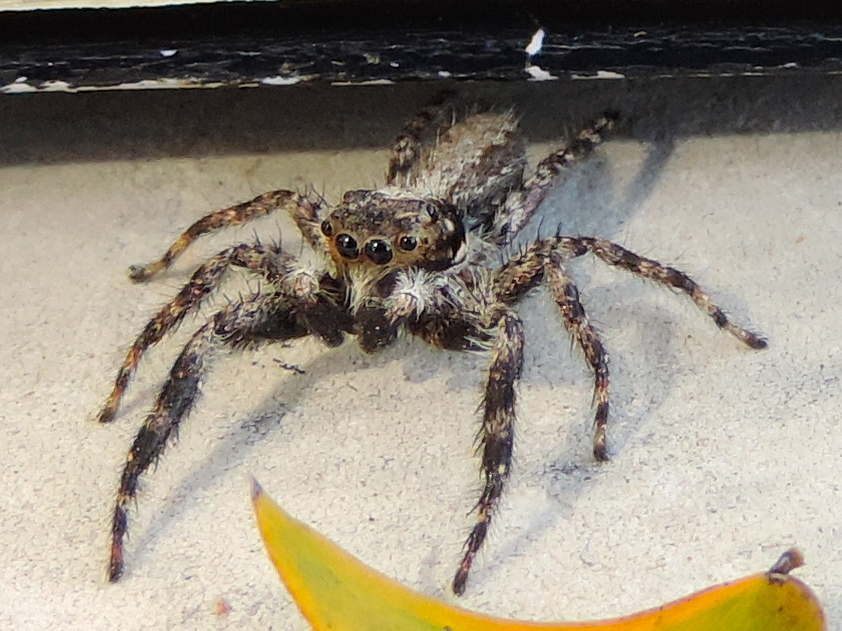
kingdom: Animalia
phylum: Arthropoda
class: Arachnida
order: Araneae
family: Salticidae
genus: Balmaceda
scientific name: Balmaceda
